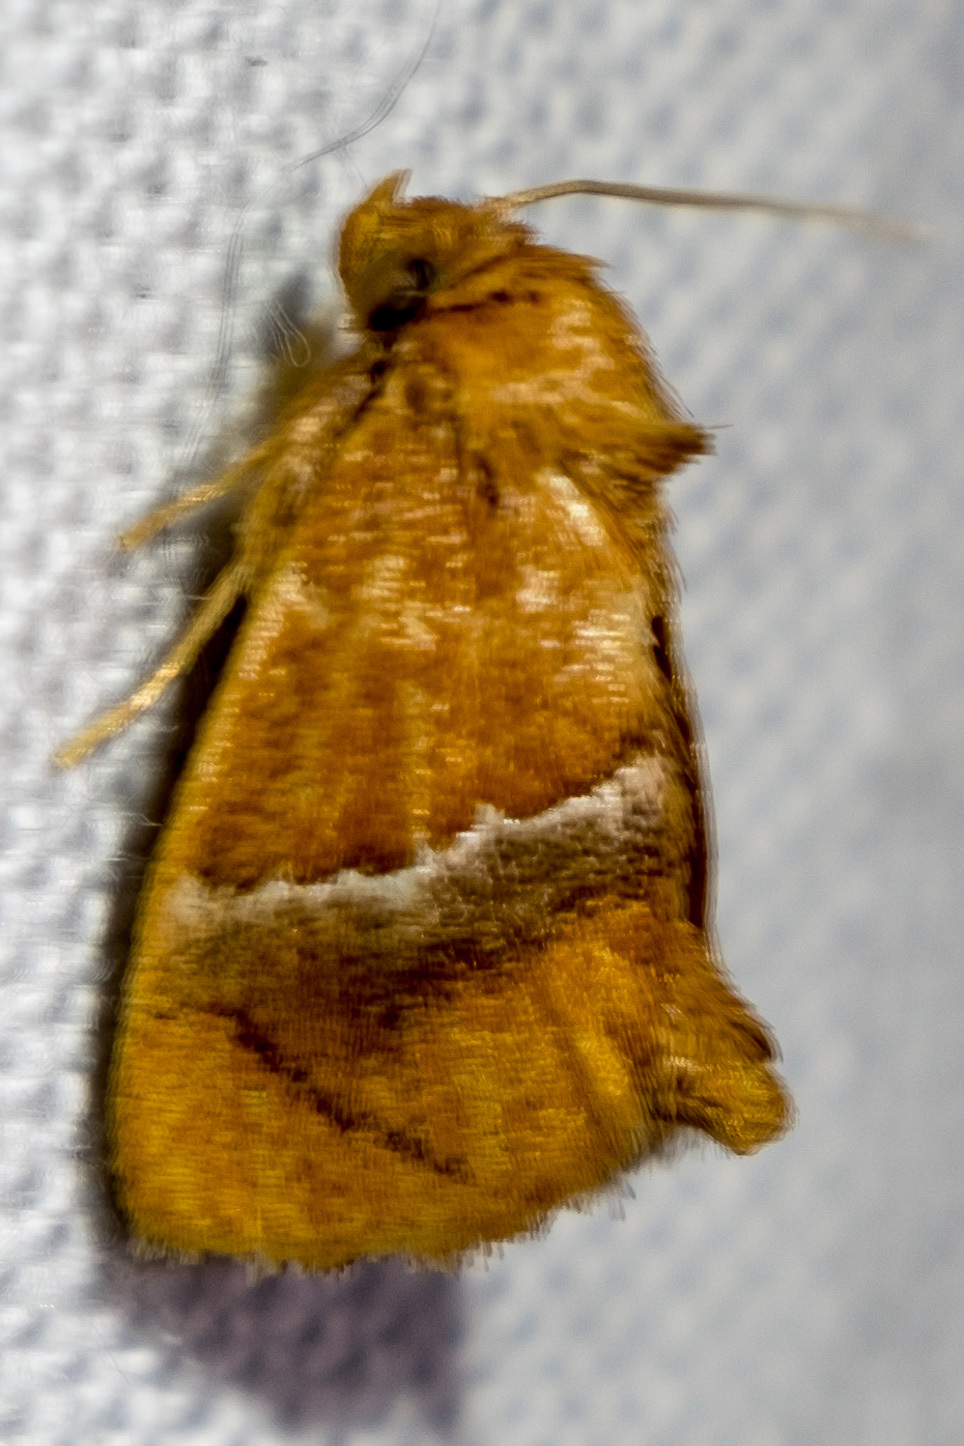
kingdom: Animalia
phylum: Arthropoda
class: Insecta
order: Lepidoptera
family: Limacodidae
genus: Lithacodes
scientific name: Lithacodes fasciola
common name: Yellow-shouldered slug moth
